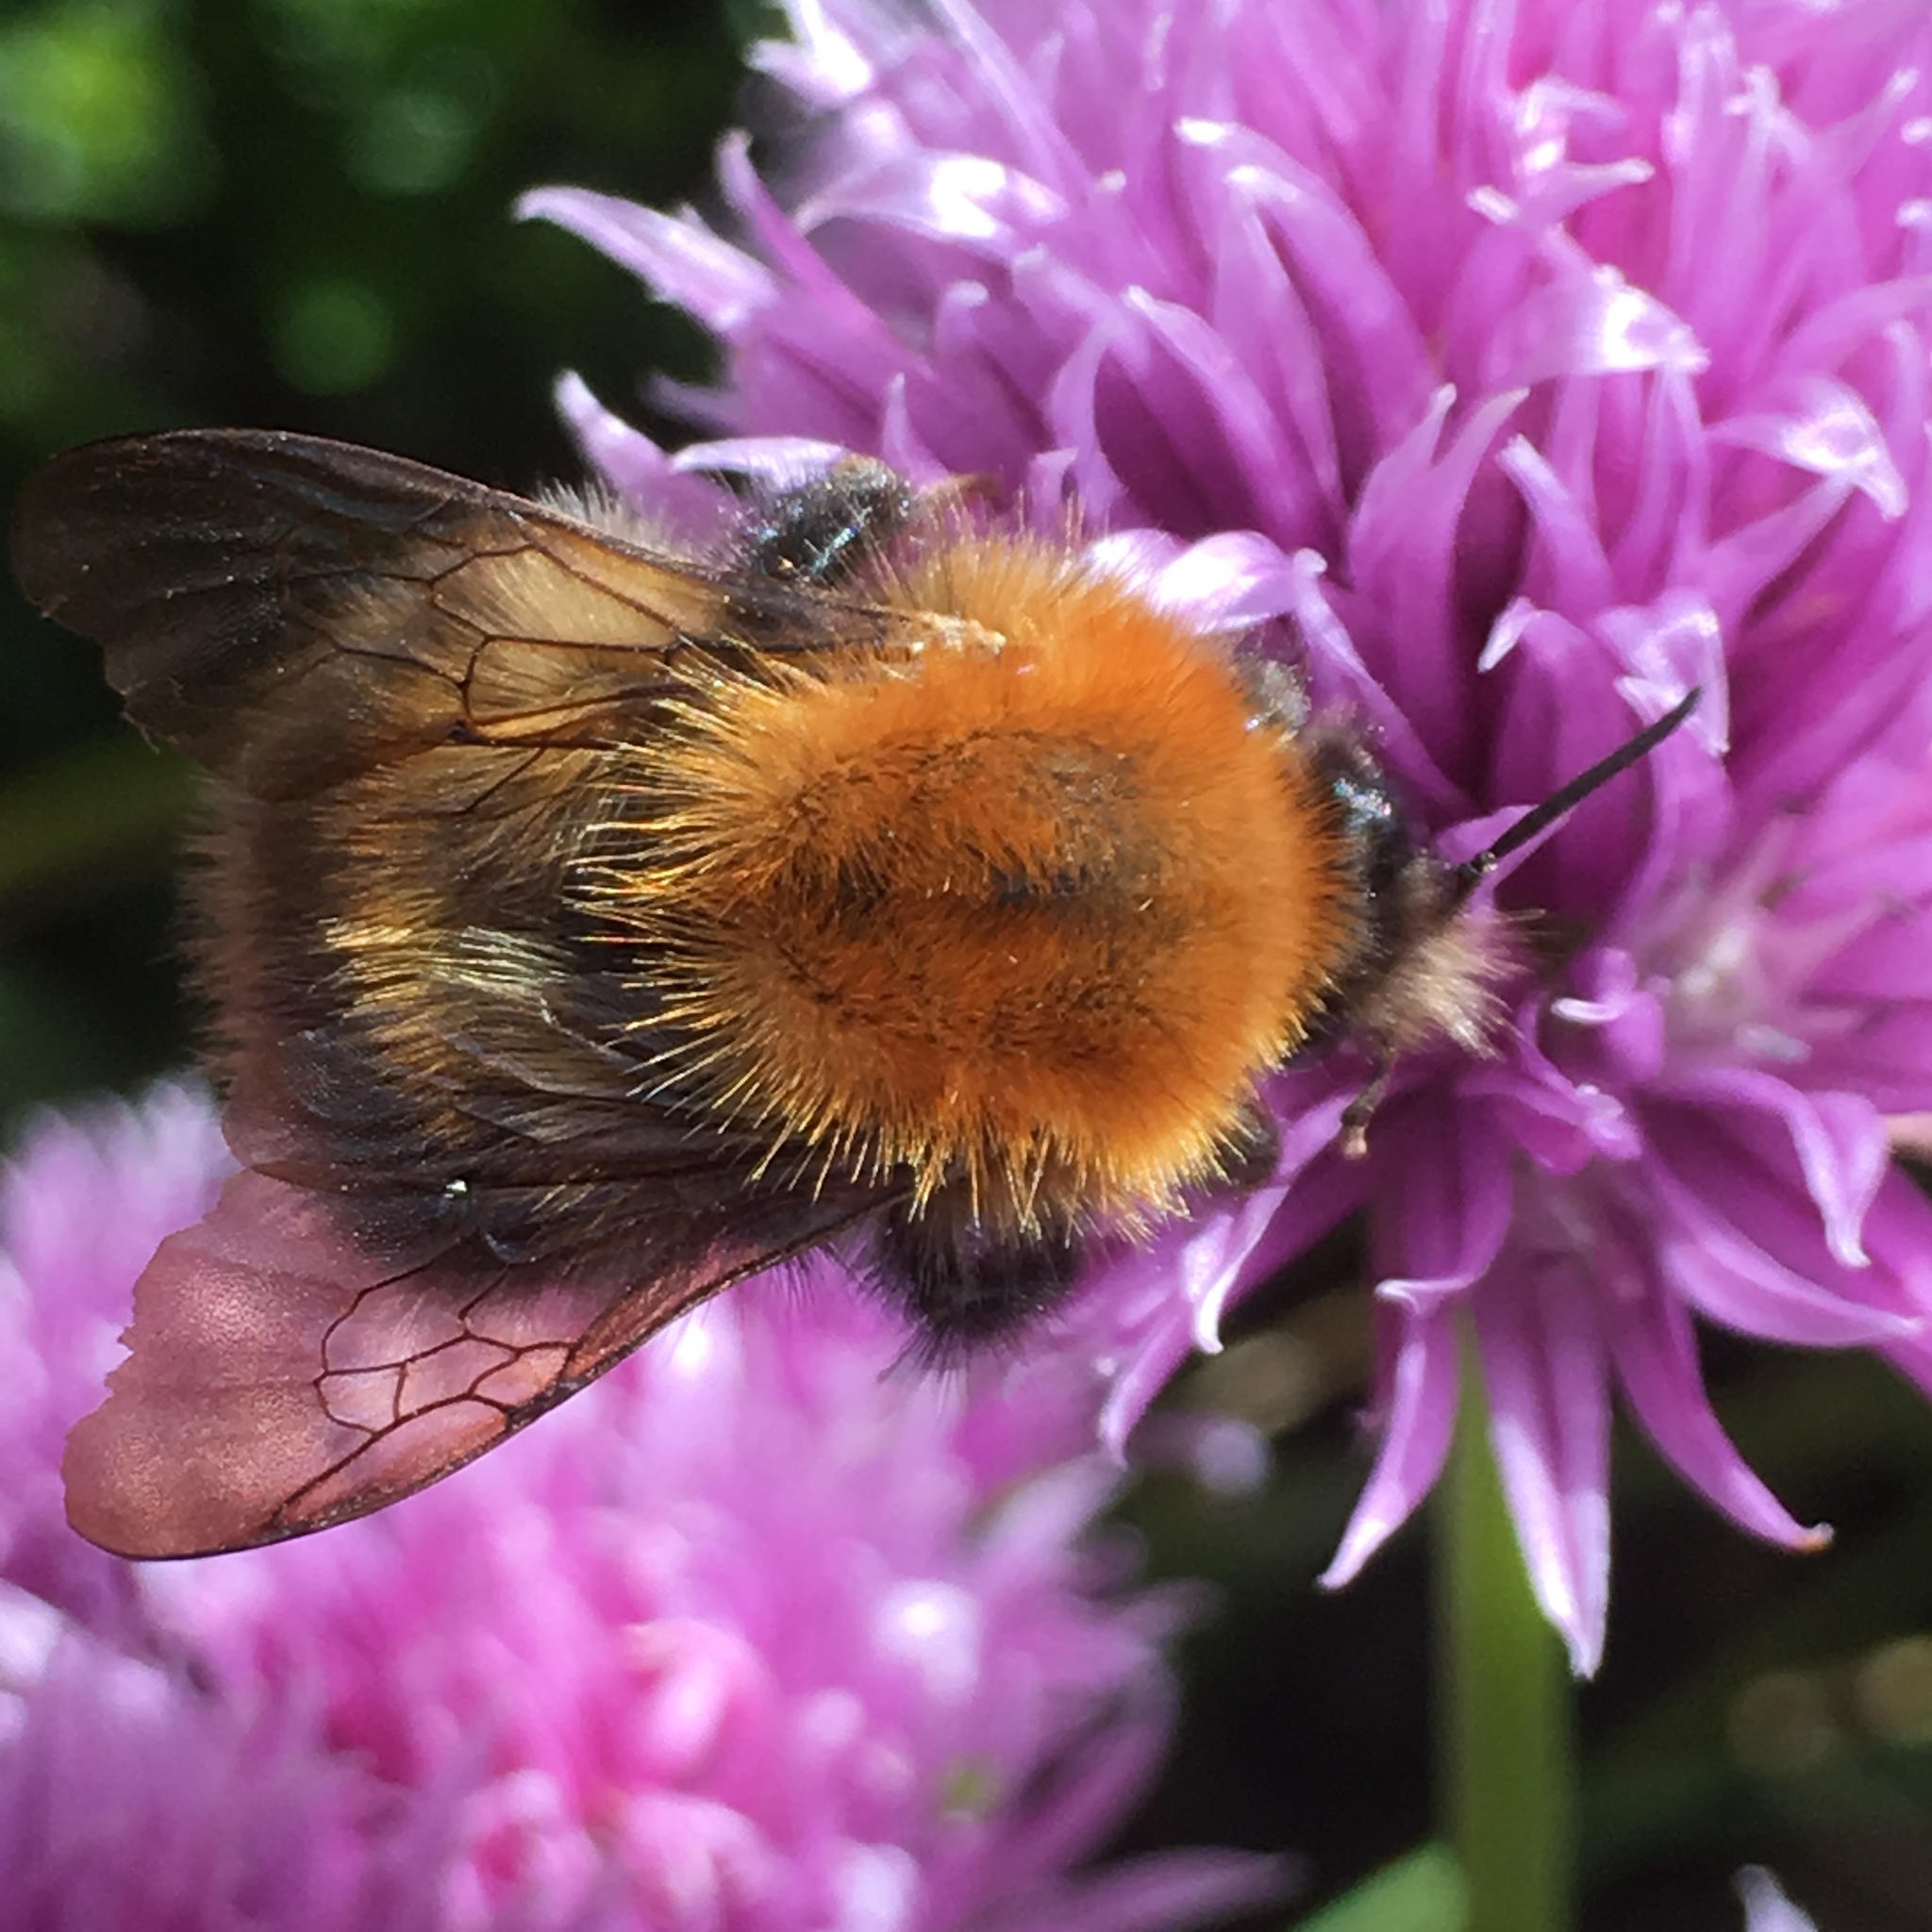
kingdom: Animalia
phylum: Arthropoda
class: Insecta
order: Hymenoptera
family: Apidae
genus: Bombus
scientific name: Bombus hypnorum
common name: New garden bumblebee
